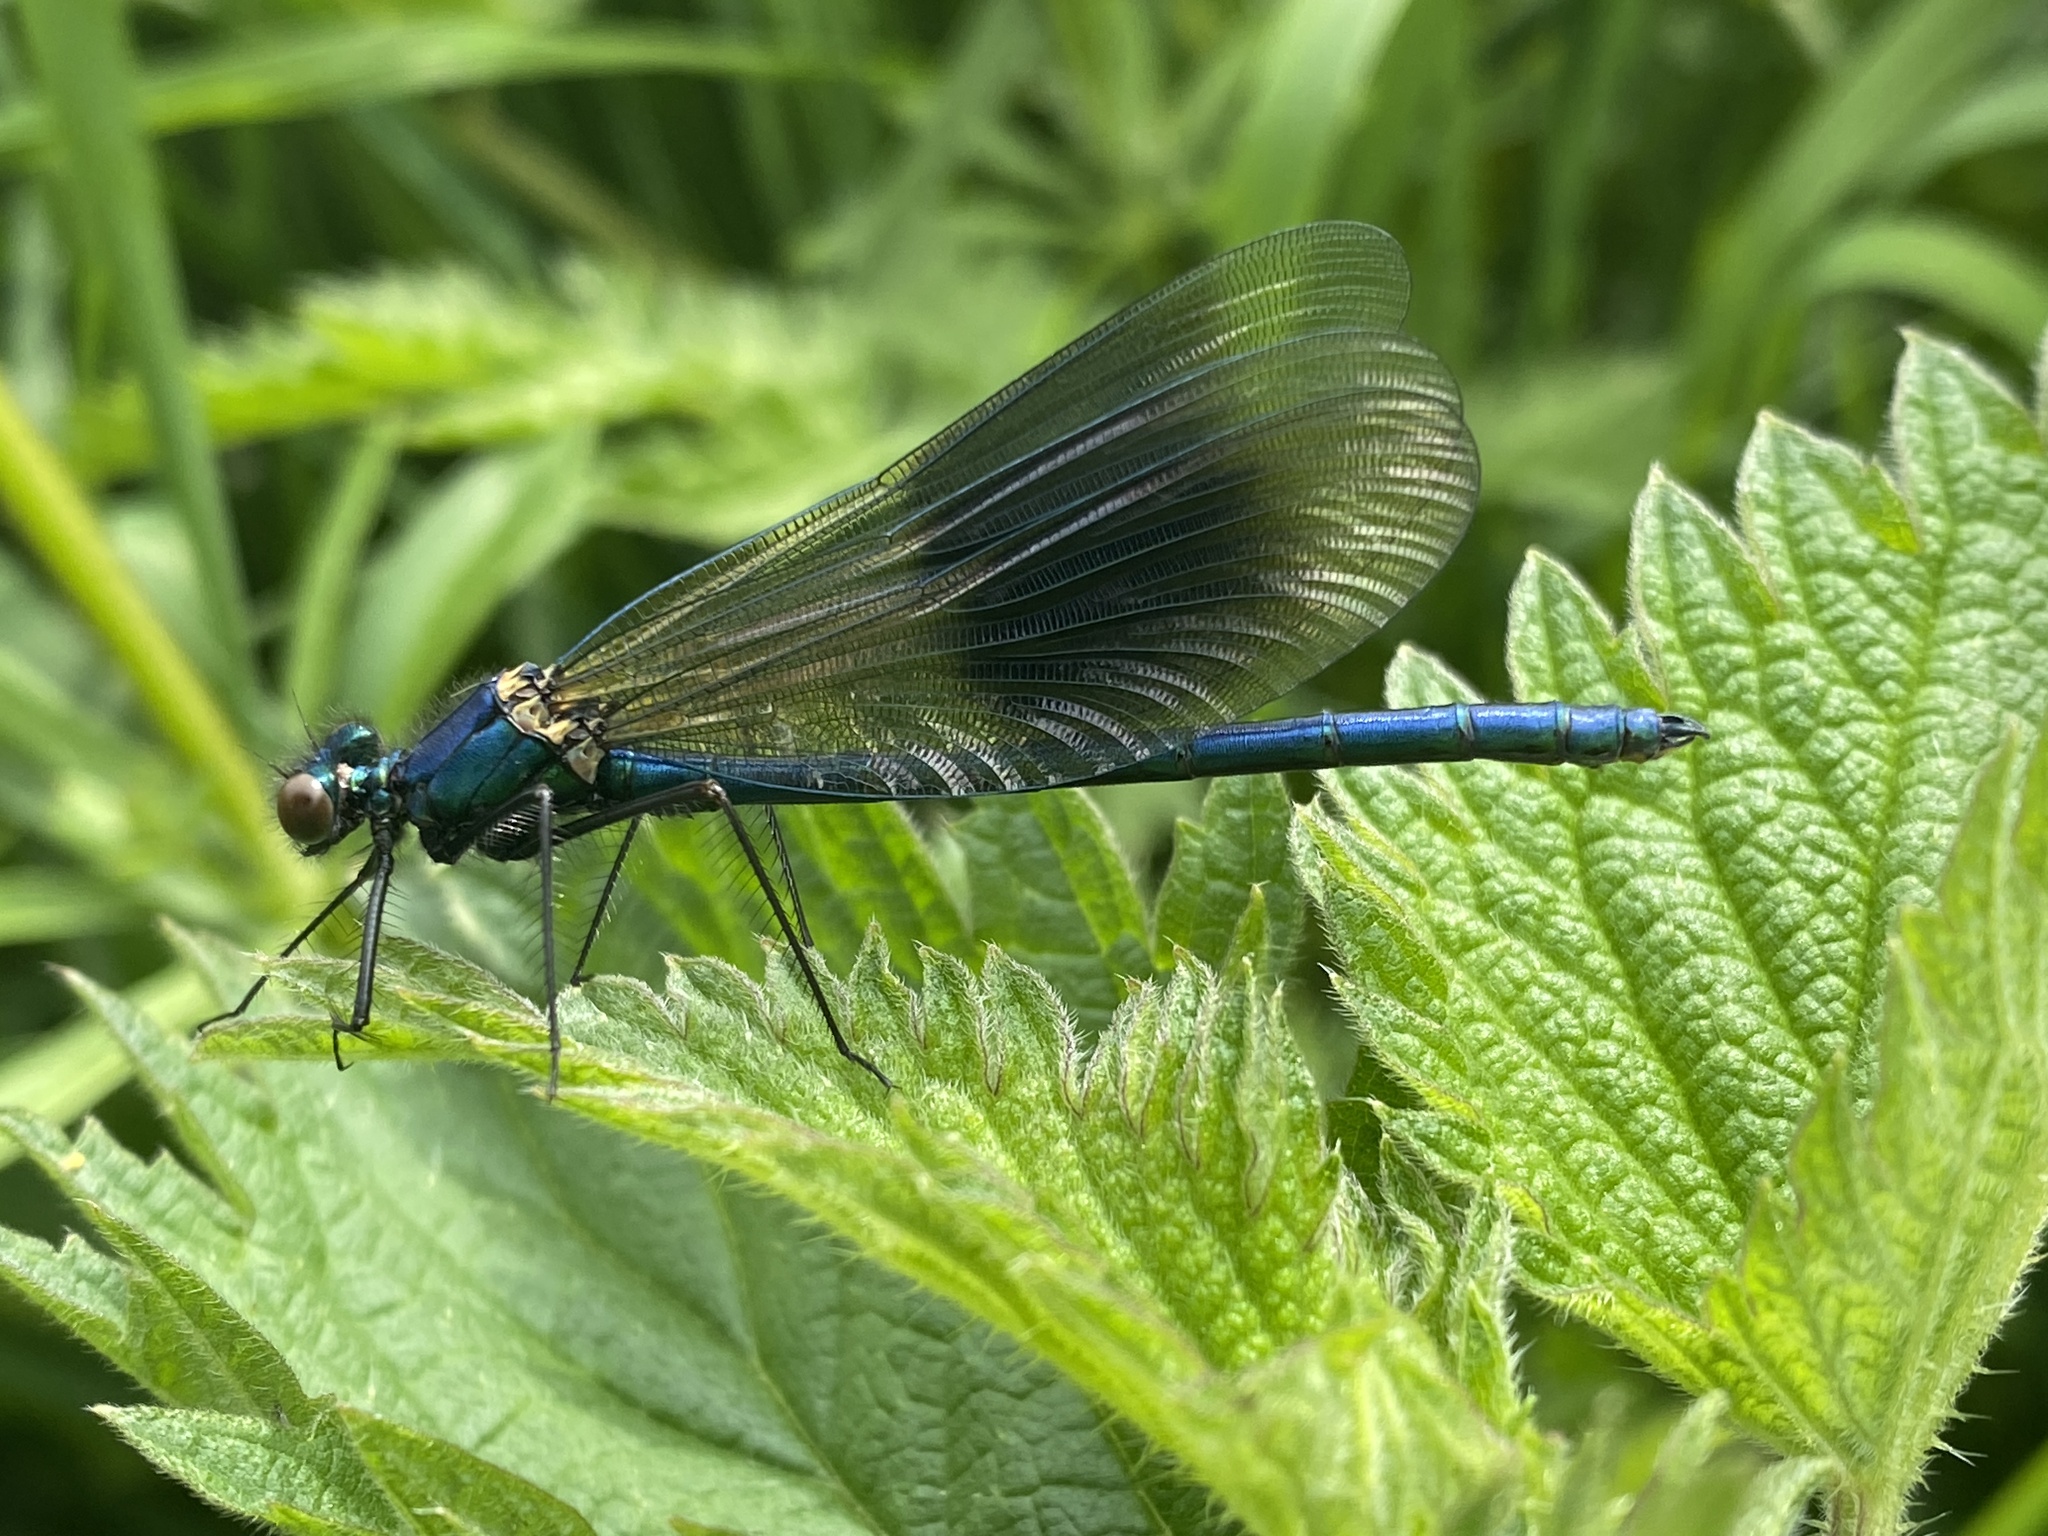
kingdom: Animalia
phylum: Arthropoda
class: Insecta
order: Odonata
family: Calopterygidae
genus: Calopteryx
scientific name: Calopteryx splendens
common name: Banded demoiselle
